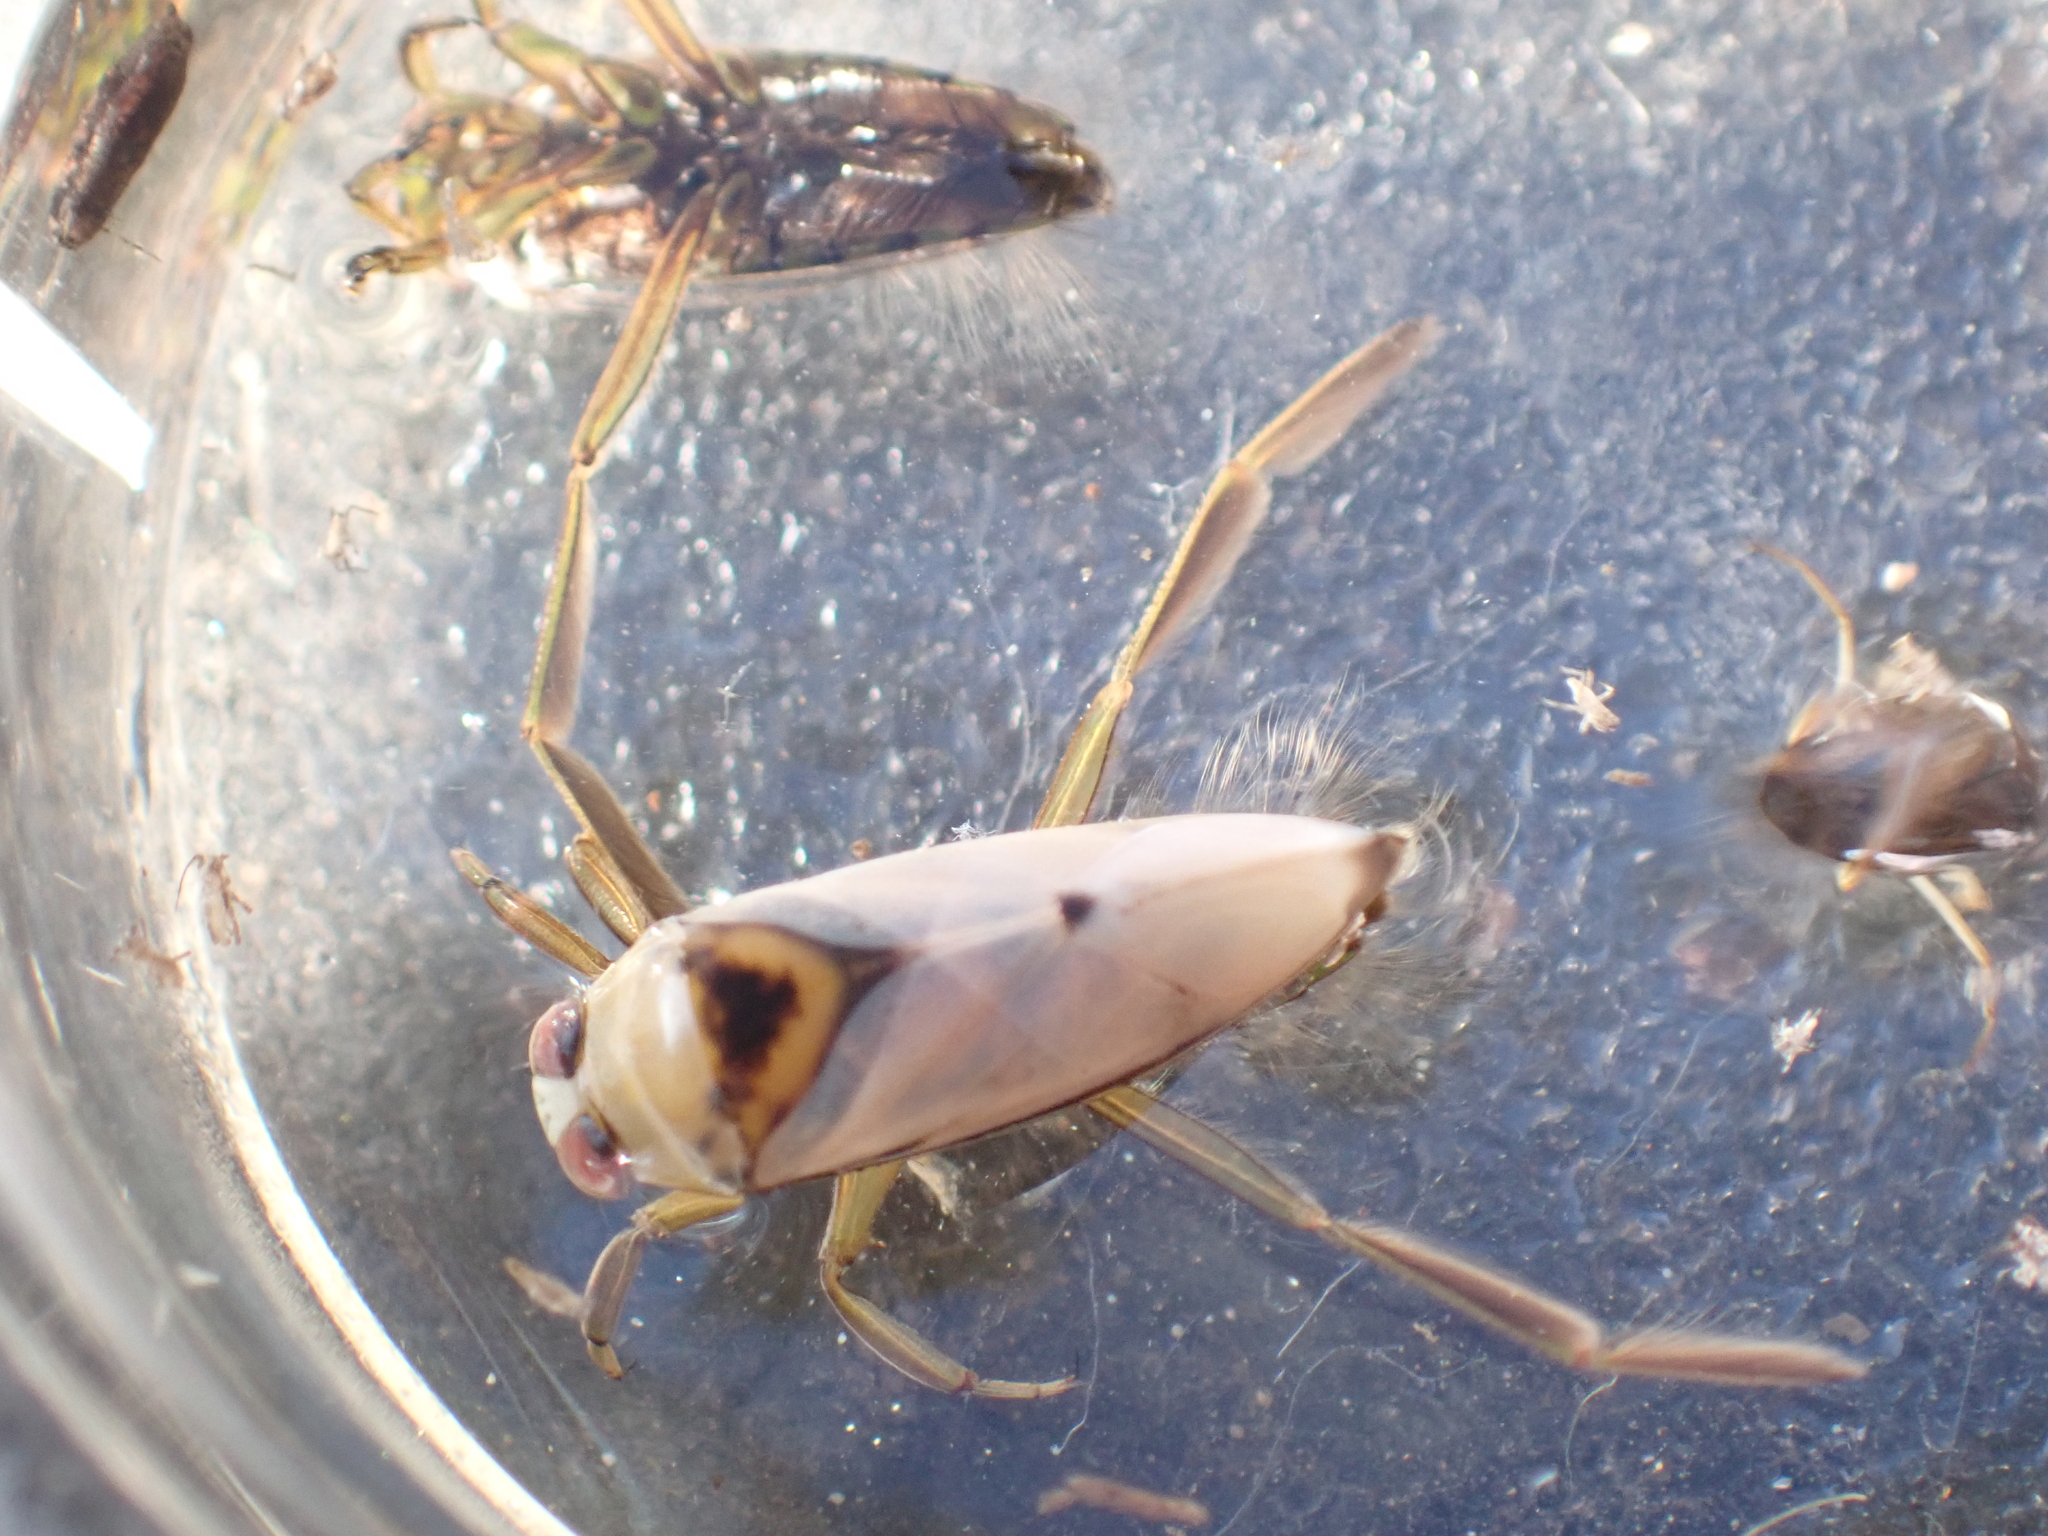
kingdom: Animalia
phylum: Arthropoda
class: Insecta
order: Hemiptera
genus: Paranecta
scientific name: Paranecta
